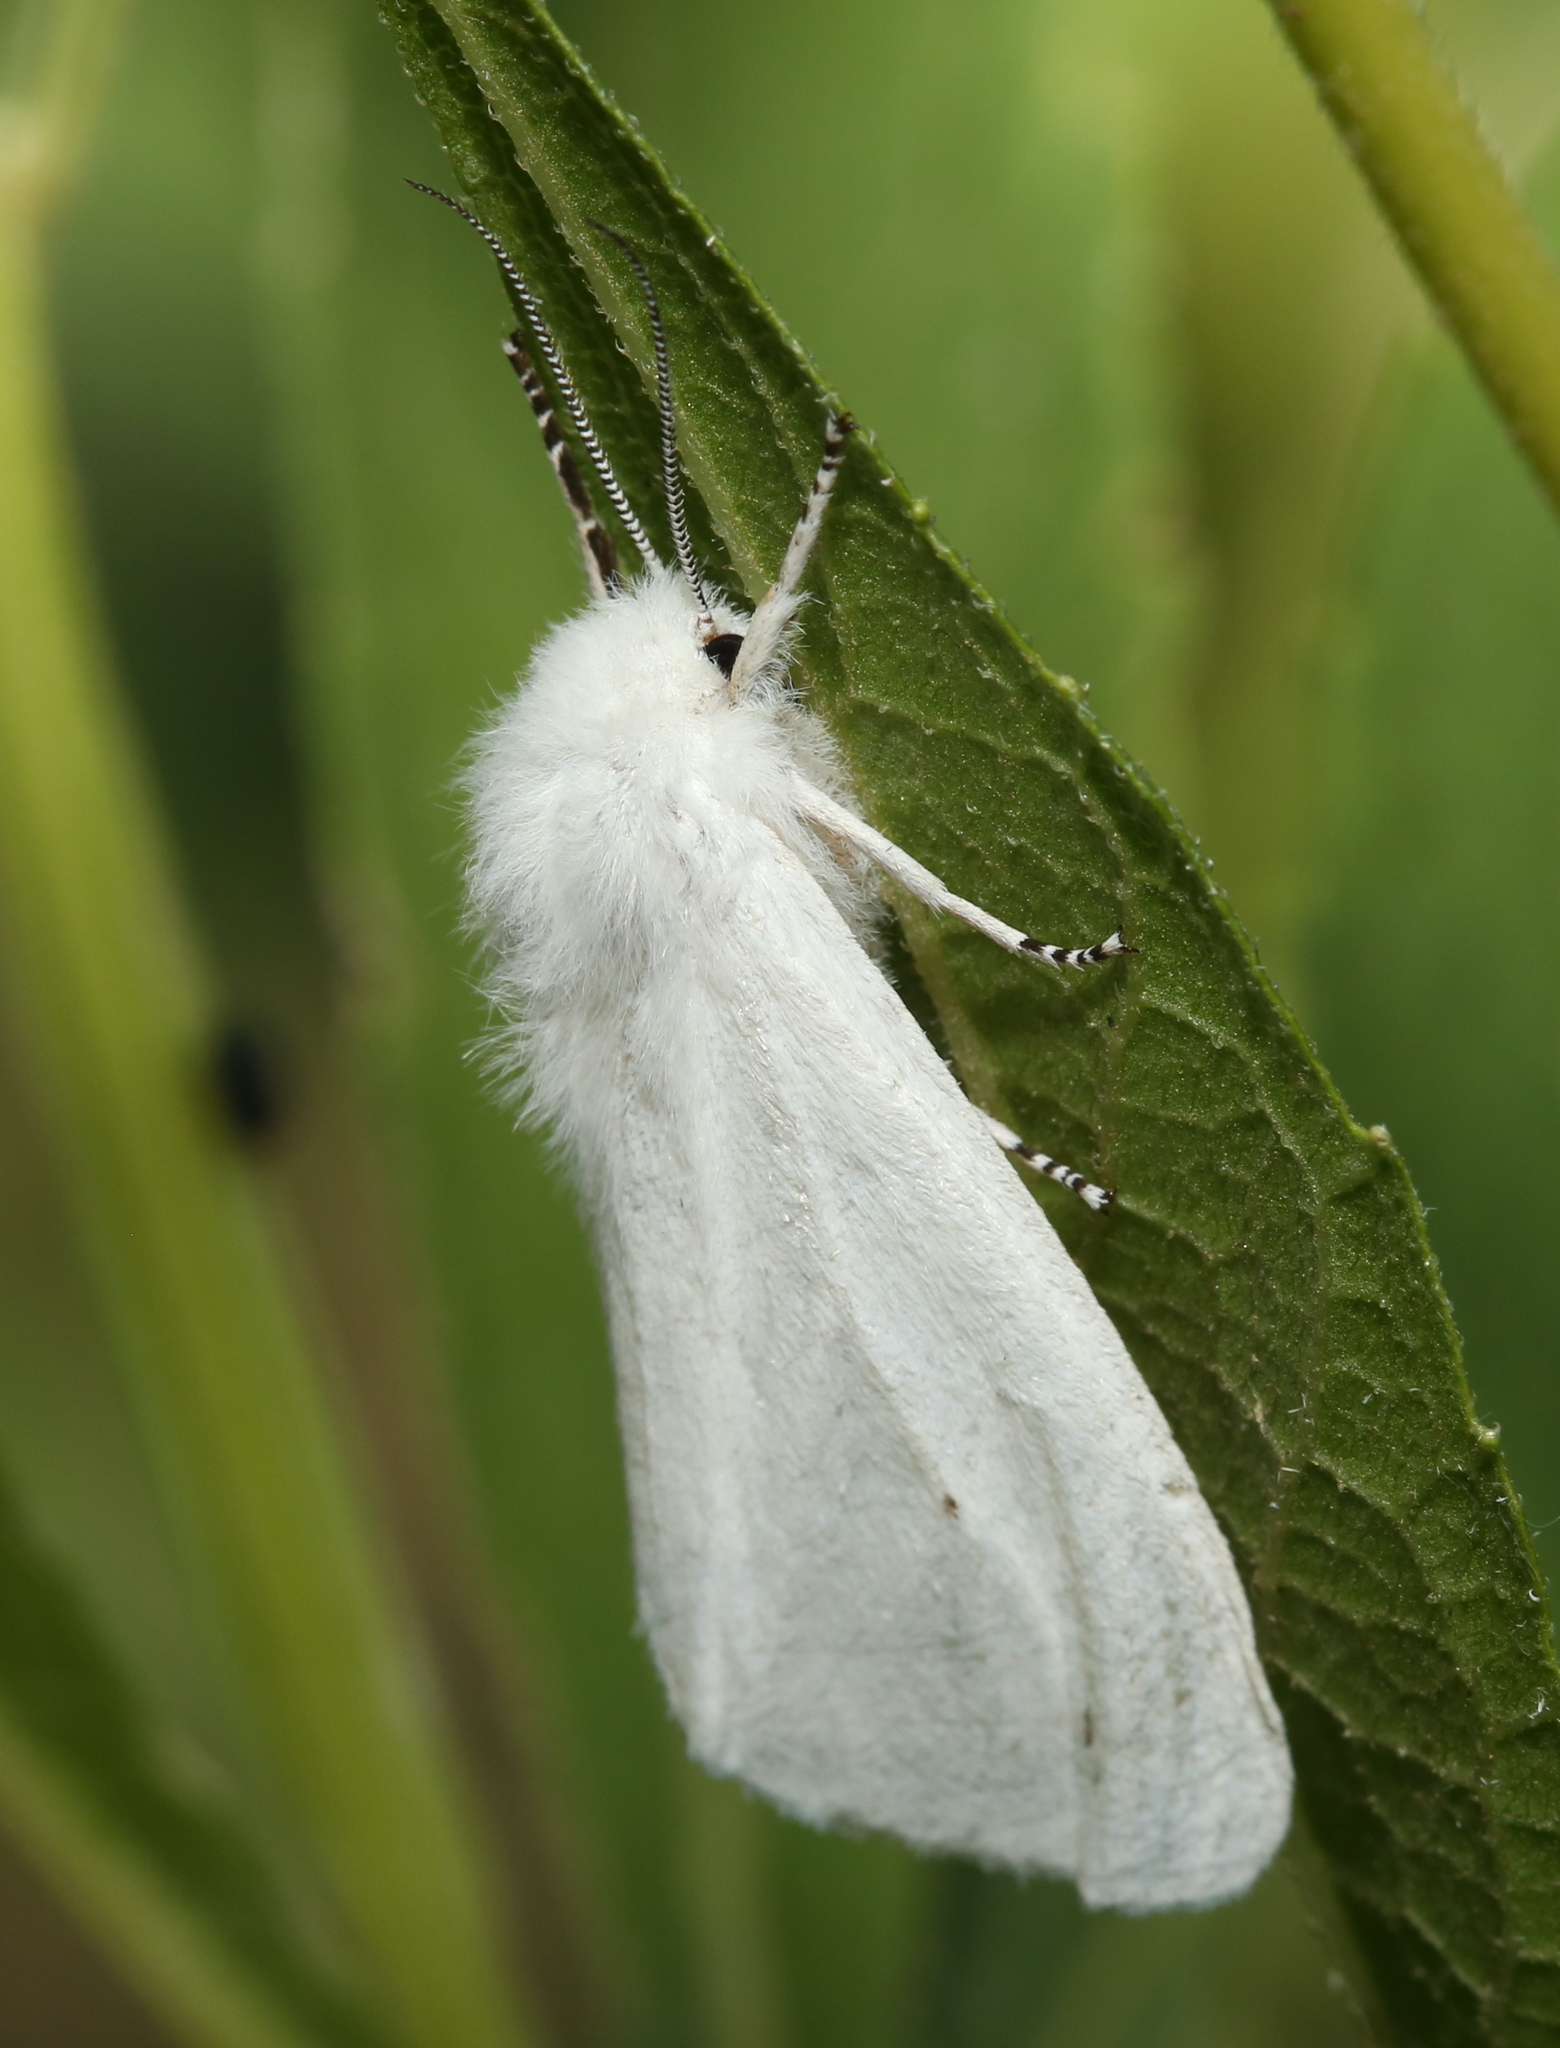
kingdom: Animalia
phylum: Arthropoda
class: Insecta
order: Lepidoptera
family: Erebidae
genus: Spilosoma
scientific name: Spilosoma virginica
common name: Virginia tiger moth
